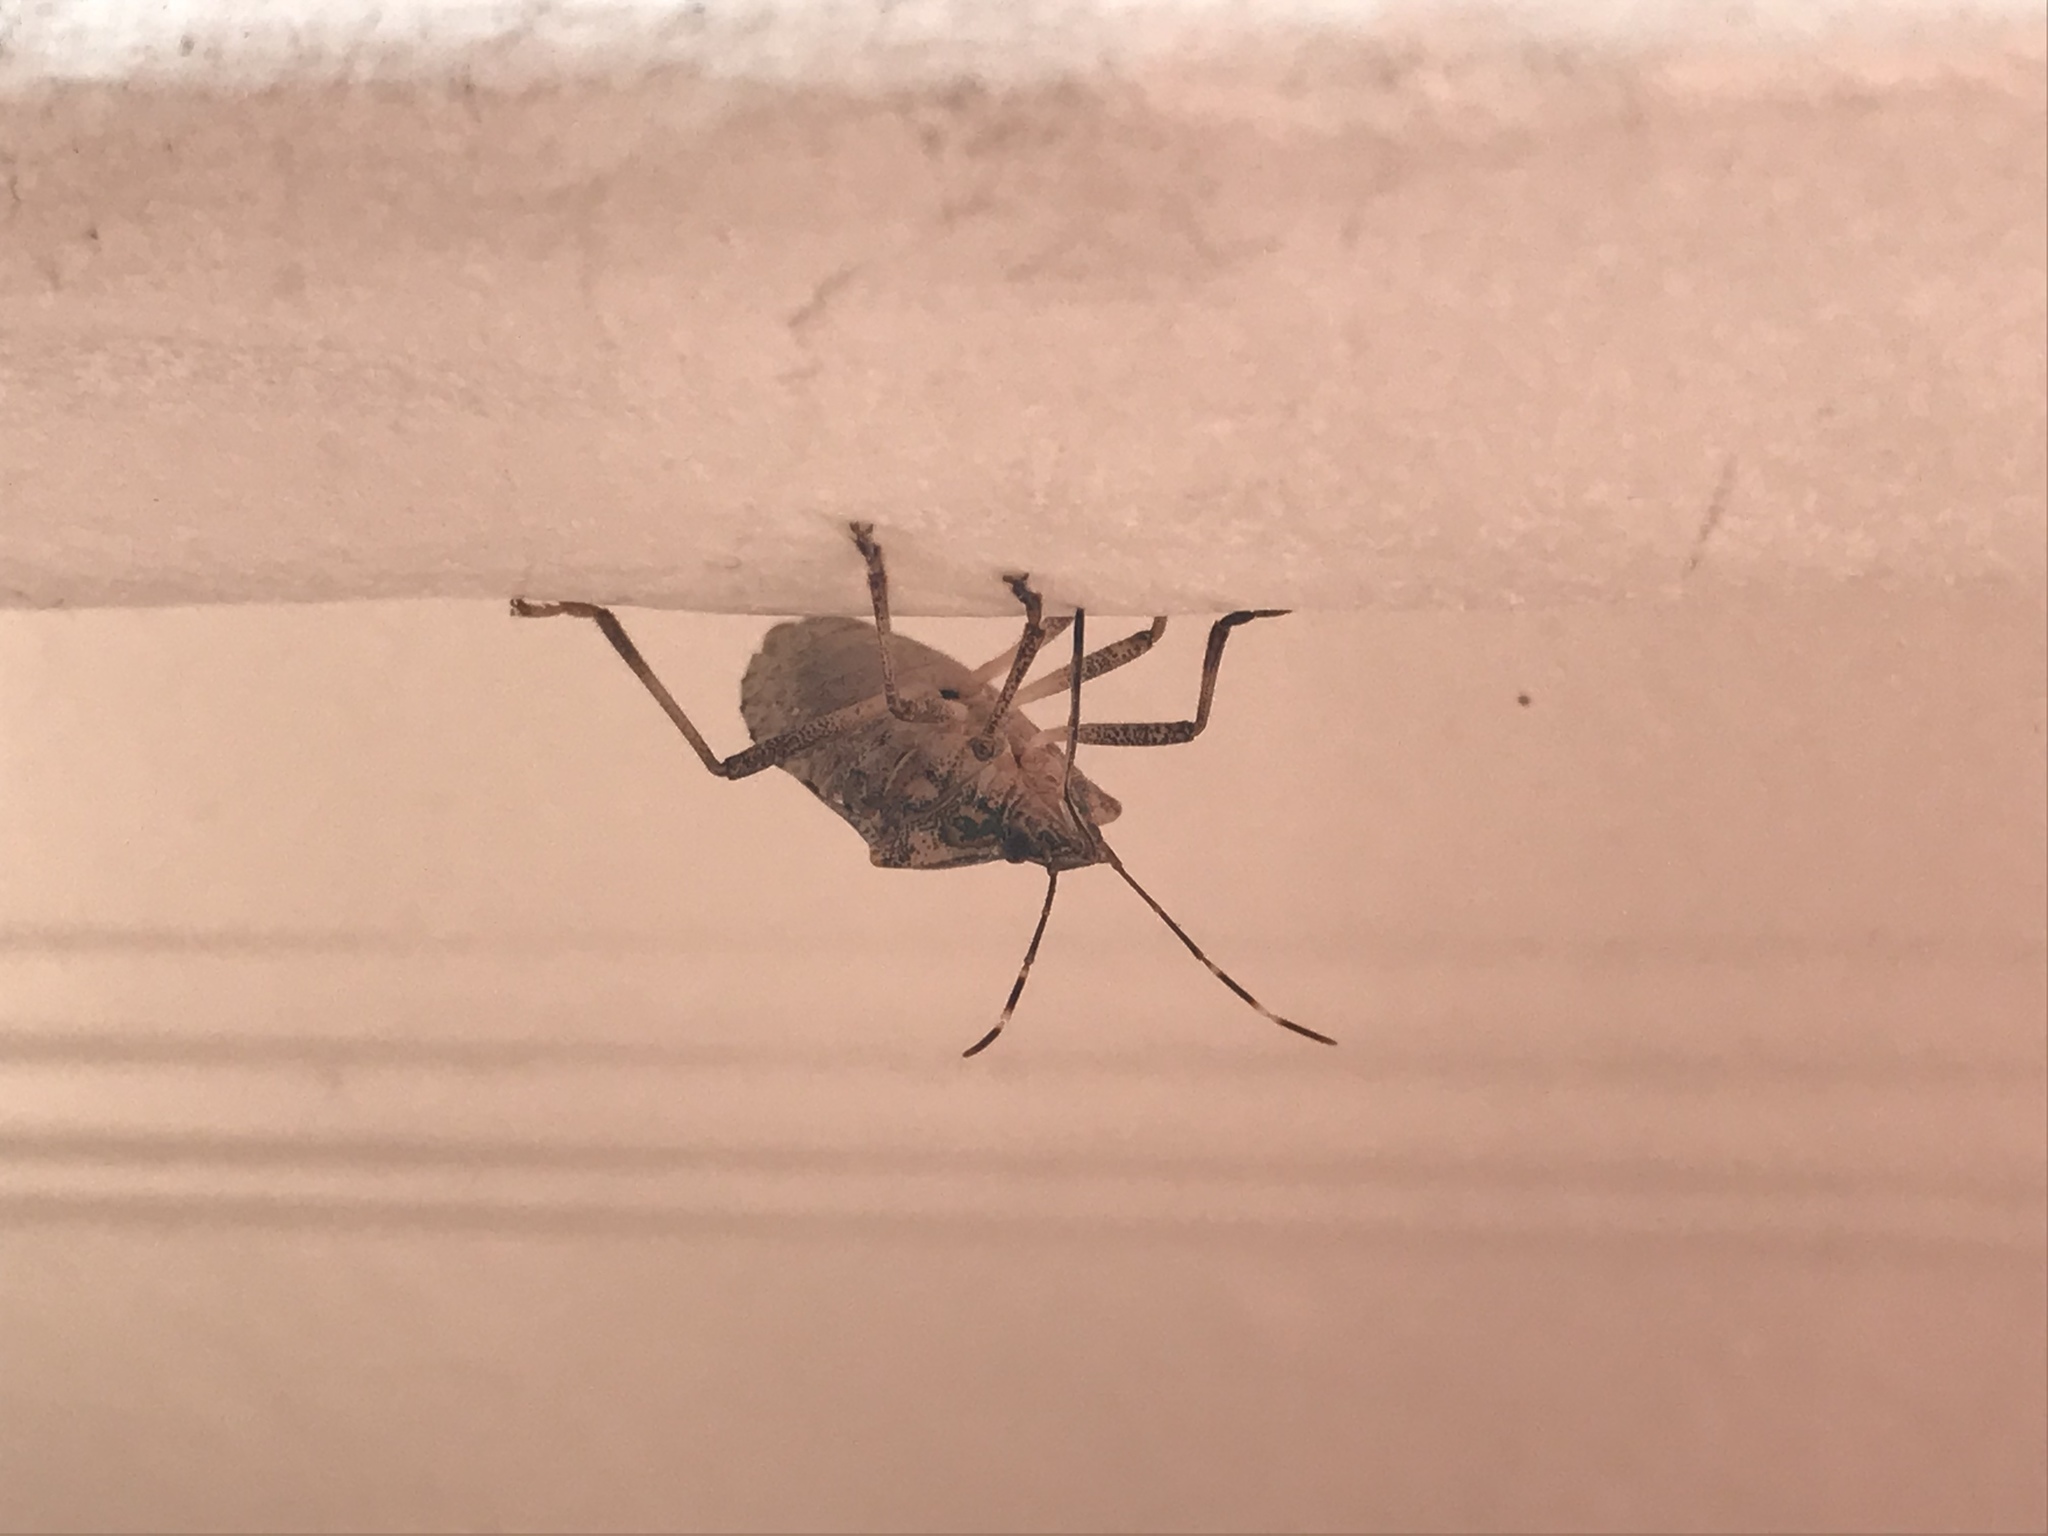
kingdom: Animalia
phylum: Arthropoda
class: Insecta
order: Hemiptera
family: Pentatomidae
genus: Halyomorpha
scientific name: Halyomorpha halys
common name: Brown marmorated stink bug
